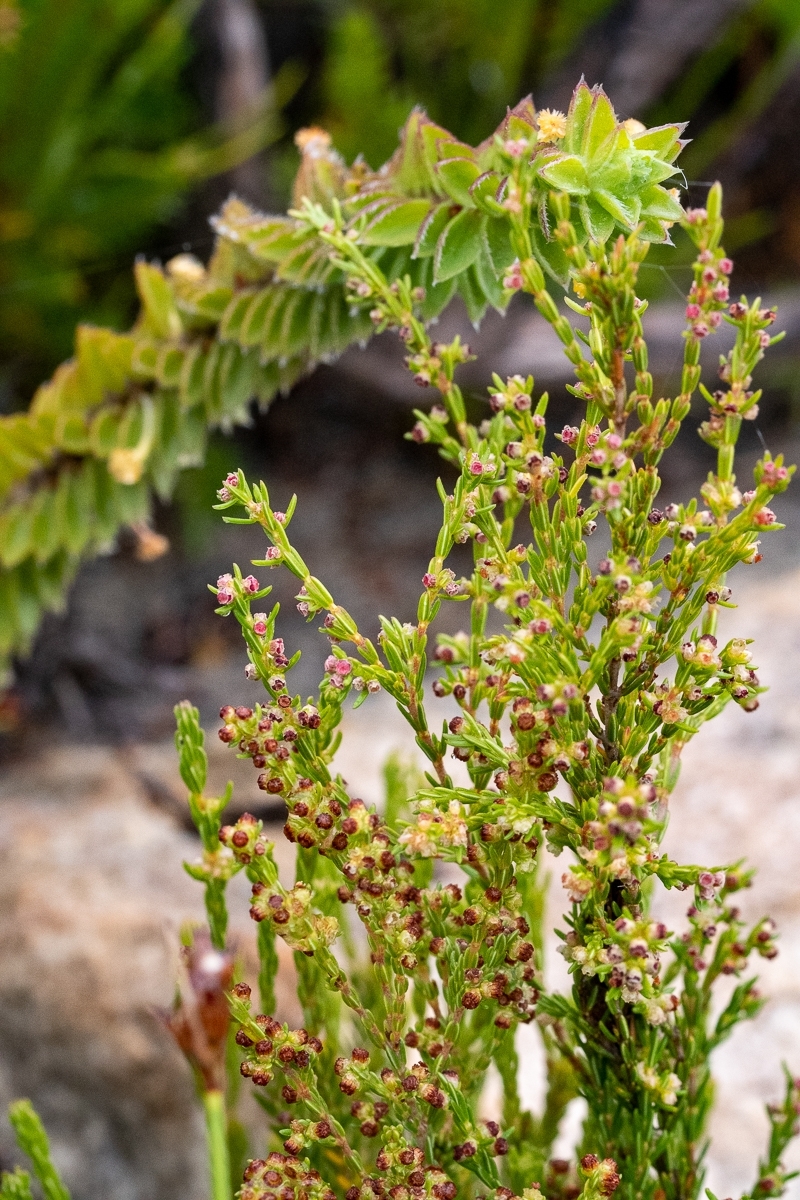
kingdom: Plantae
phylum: Tracheophyta
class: Magnoliopsida
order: Ericales
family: Ericaceae
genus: Erica
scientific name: Erica axillaris
